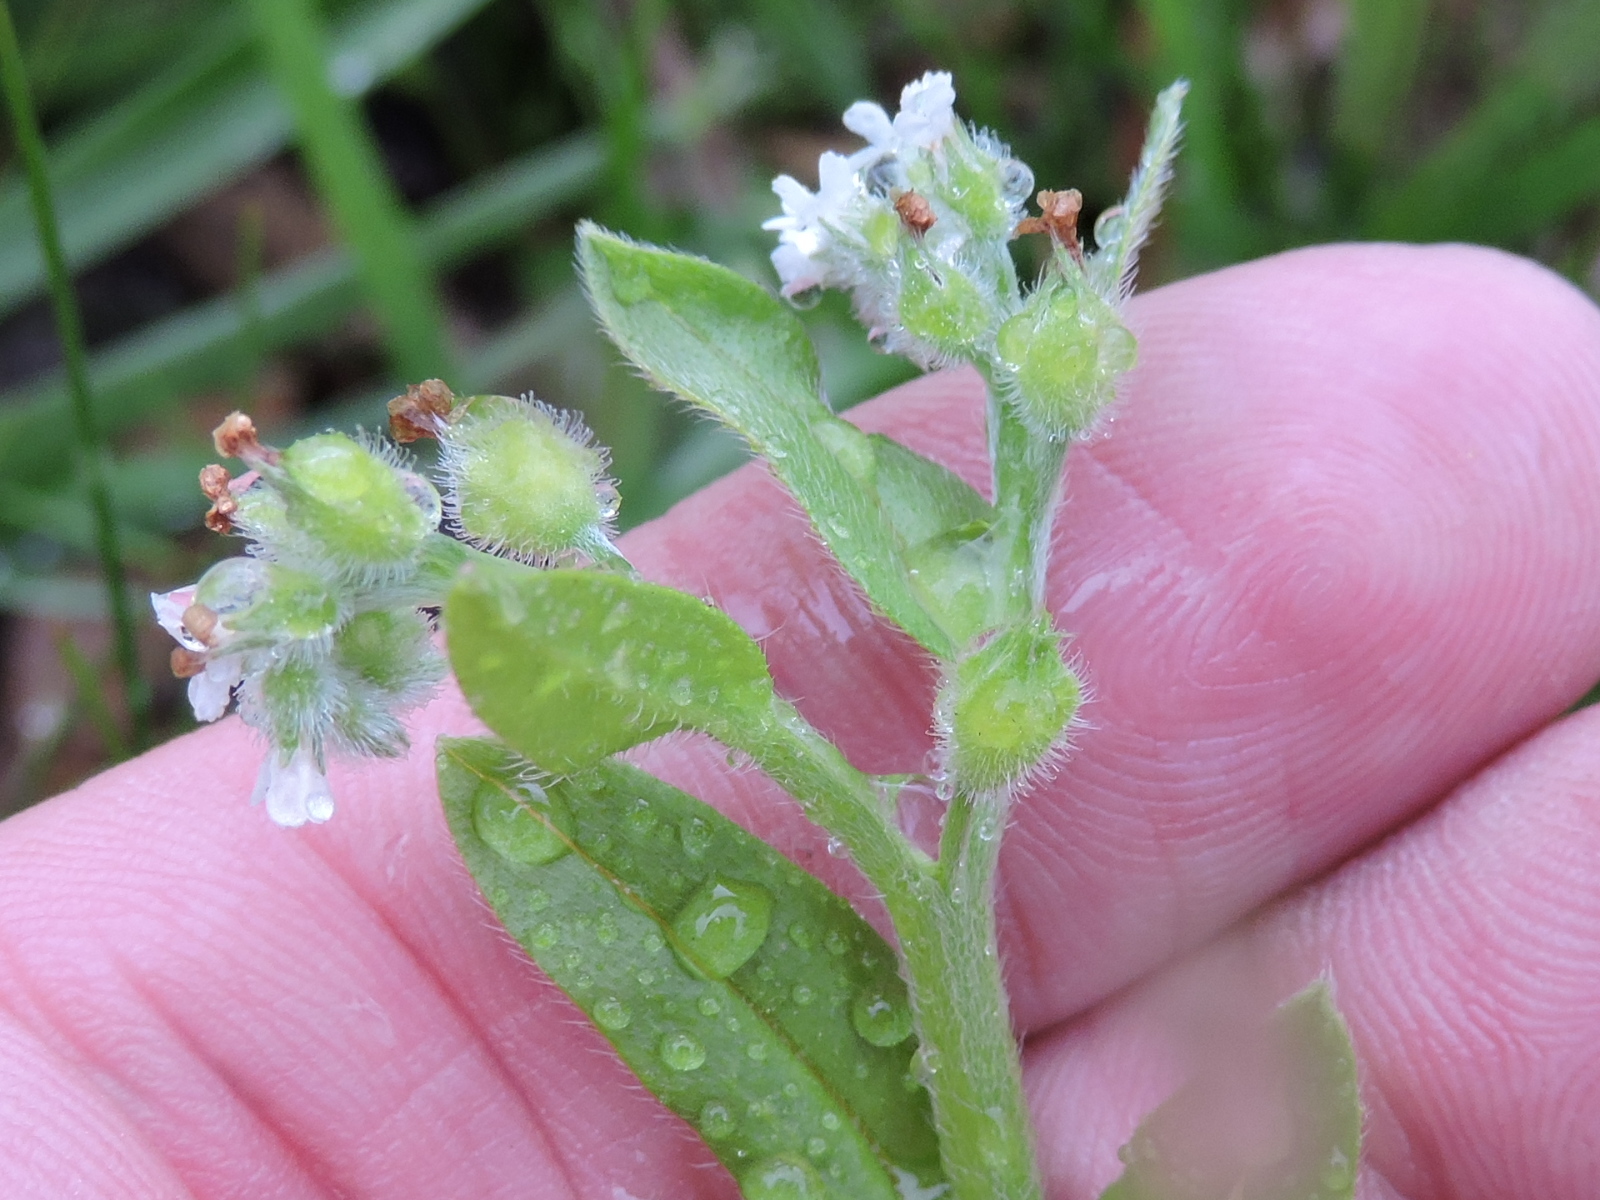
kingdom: Plantae
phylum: Tracheophyta
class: Magnoliopsida
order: Boraginales
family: Boraginaceae
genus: Myosotis
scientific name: Myosotis macrosperma
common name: Large-seed forget-me-not
